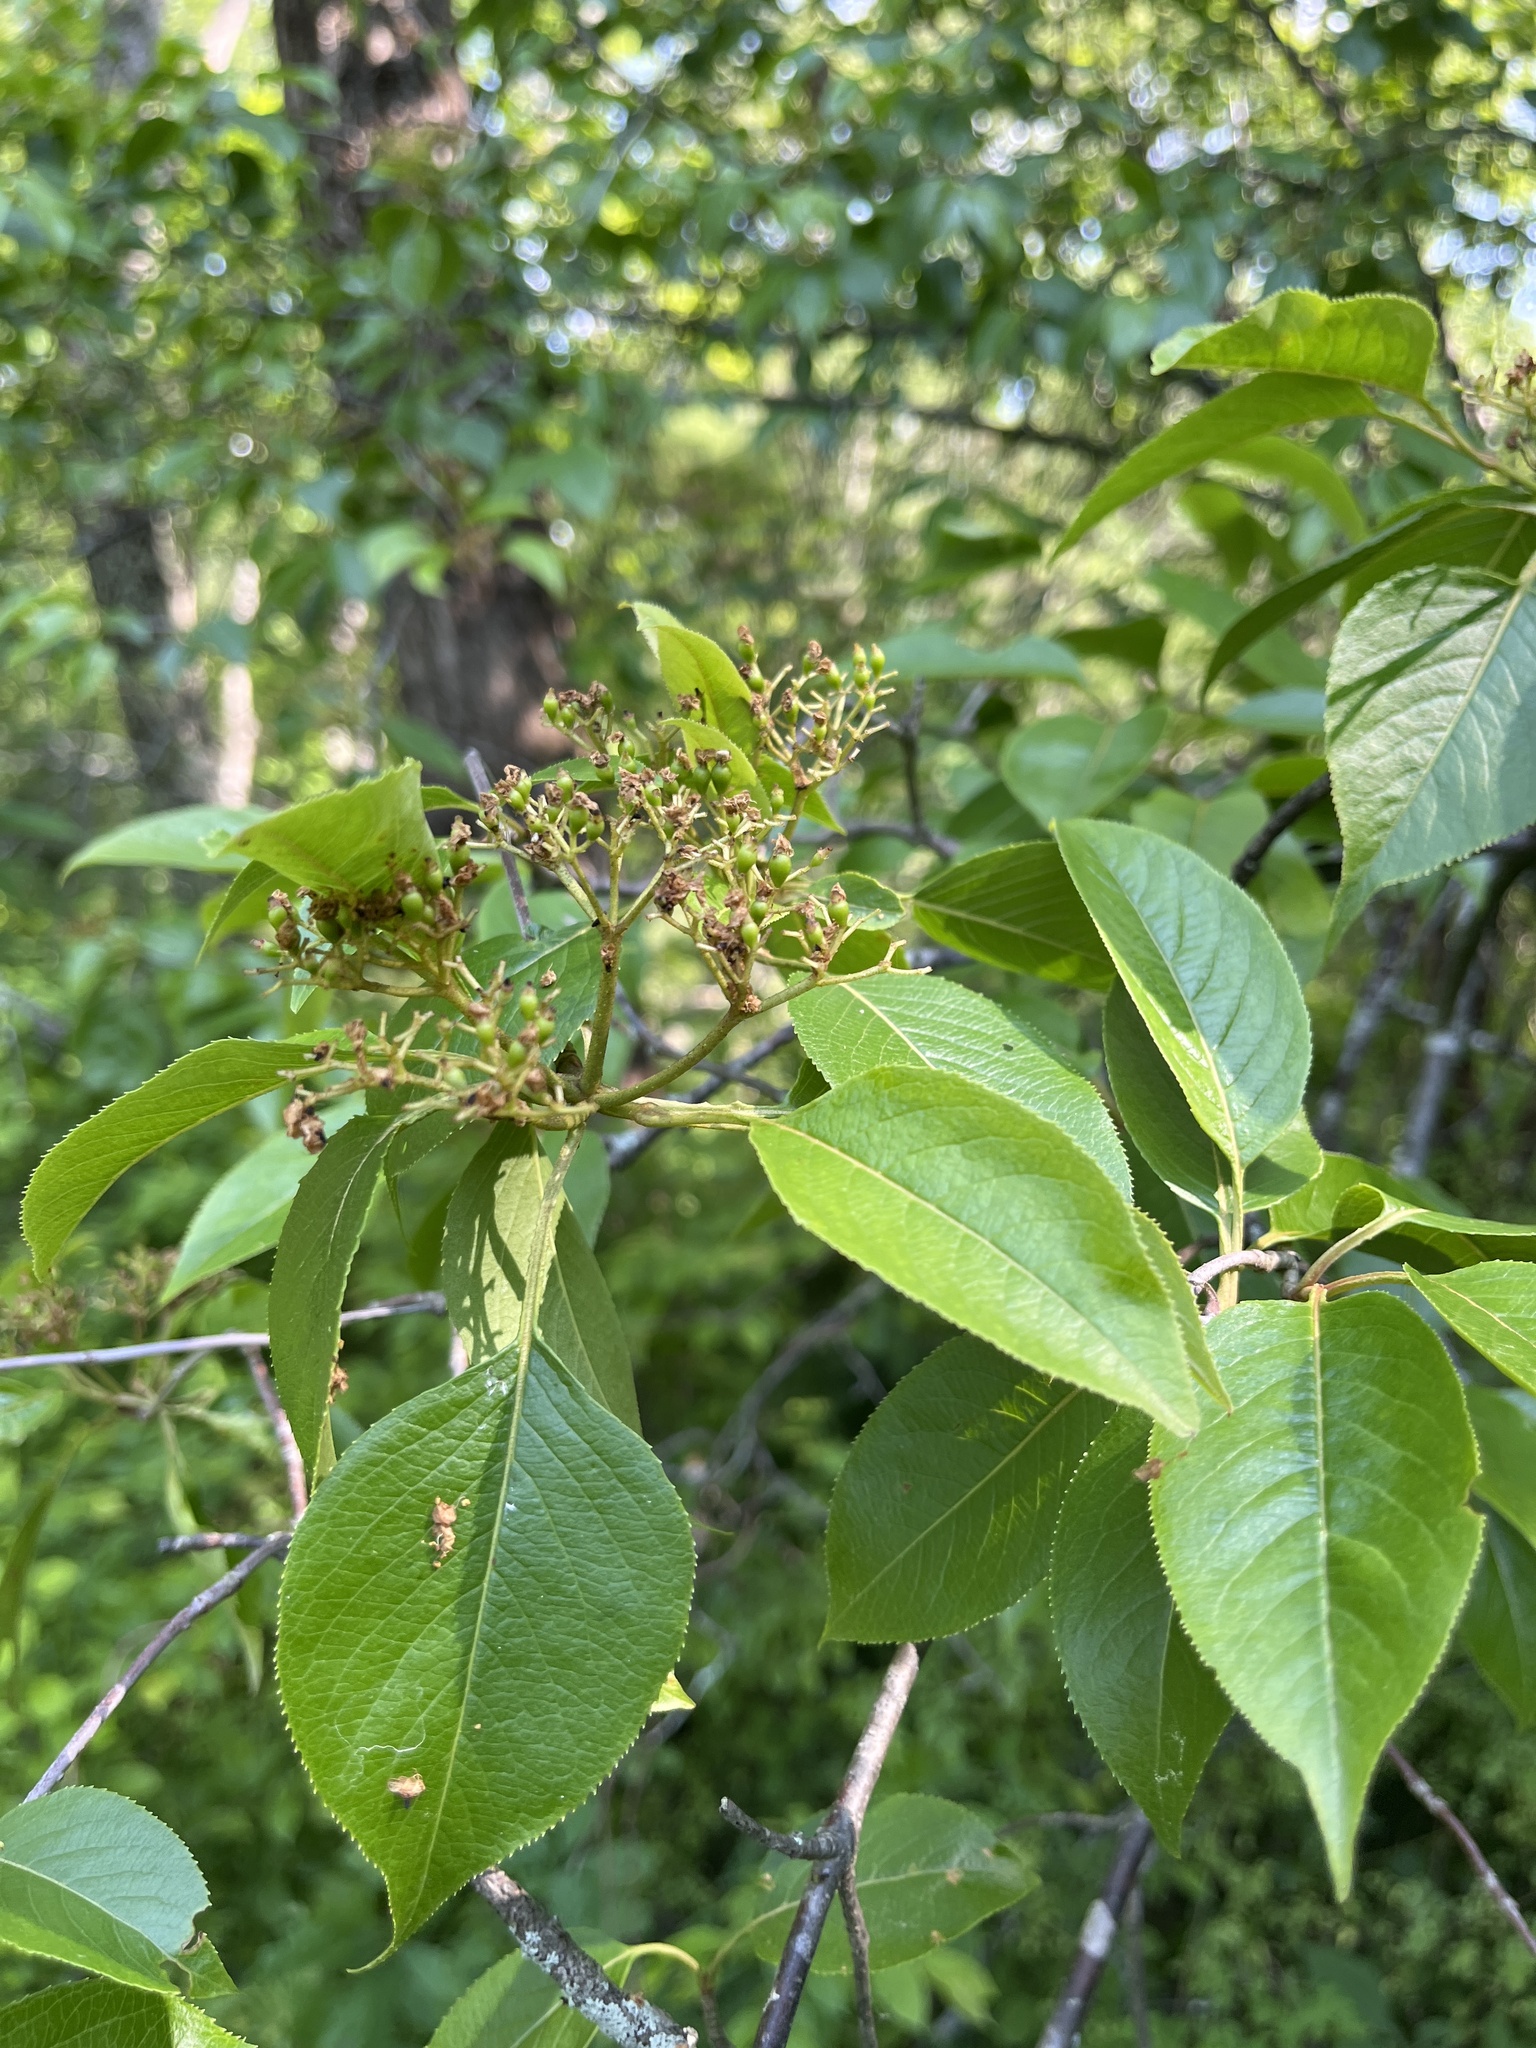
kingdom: Plantae
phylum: Tracheophyta
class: Magnoliopsida
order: Dipsacales
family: Viburnaceae
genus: Viburnum
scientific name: Viburnum lentago
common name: Black haw
